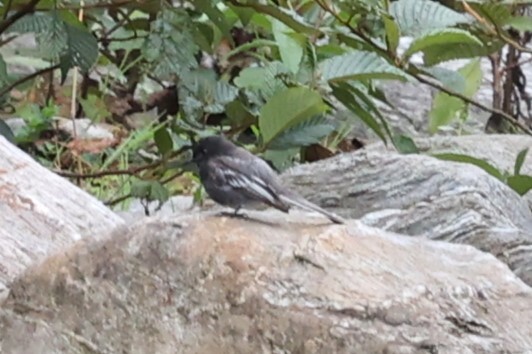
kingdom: Animalia
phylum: Chordata
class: Aves
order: Passeriformes
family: Tyrannidae
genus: Sayornis
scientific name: Sayornis nigricans
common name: Black phoebe
